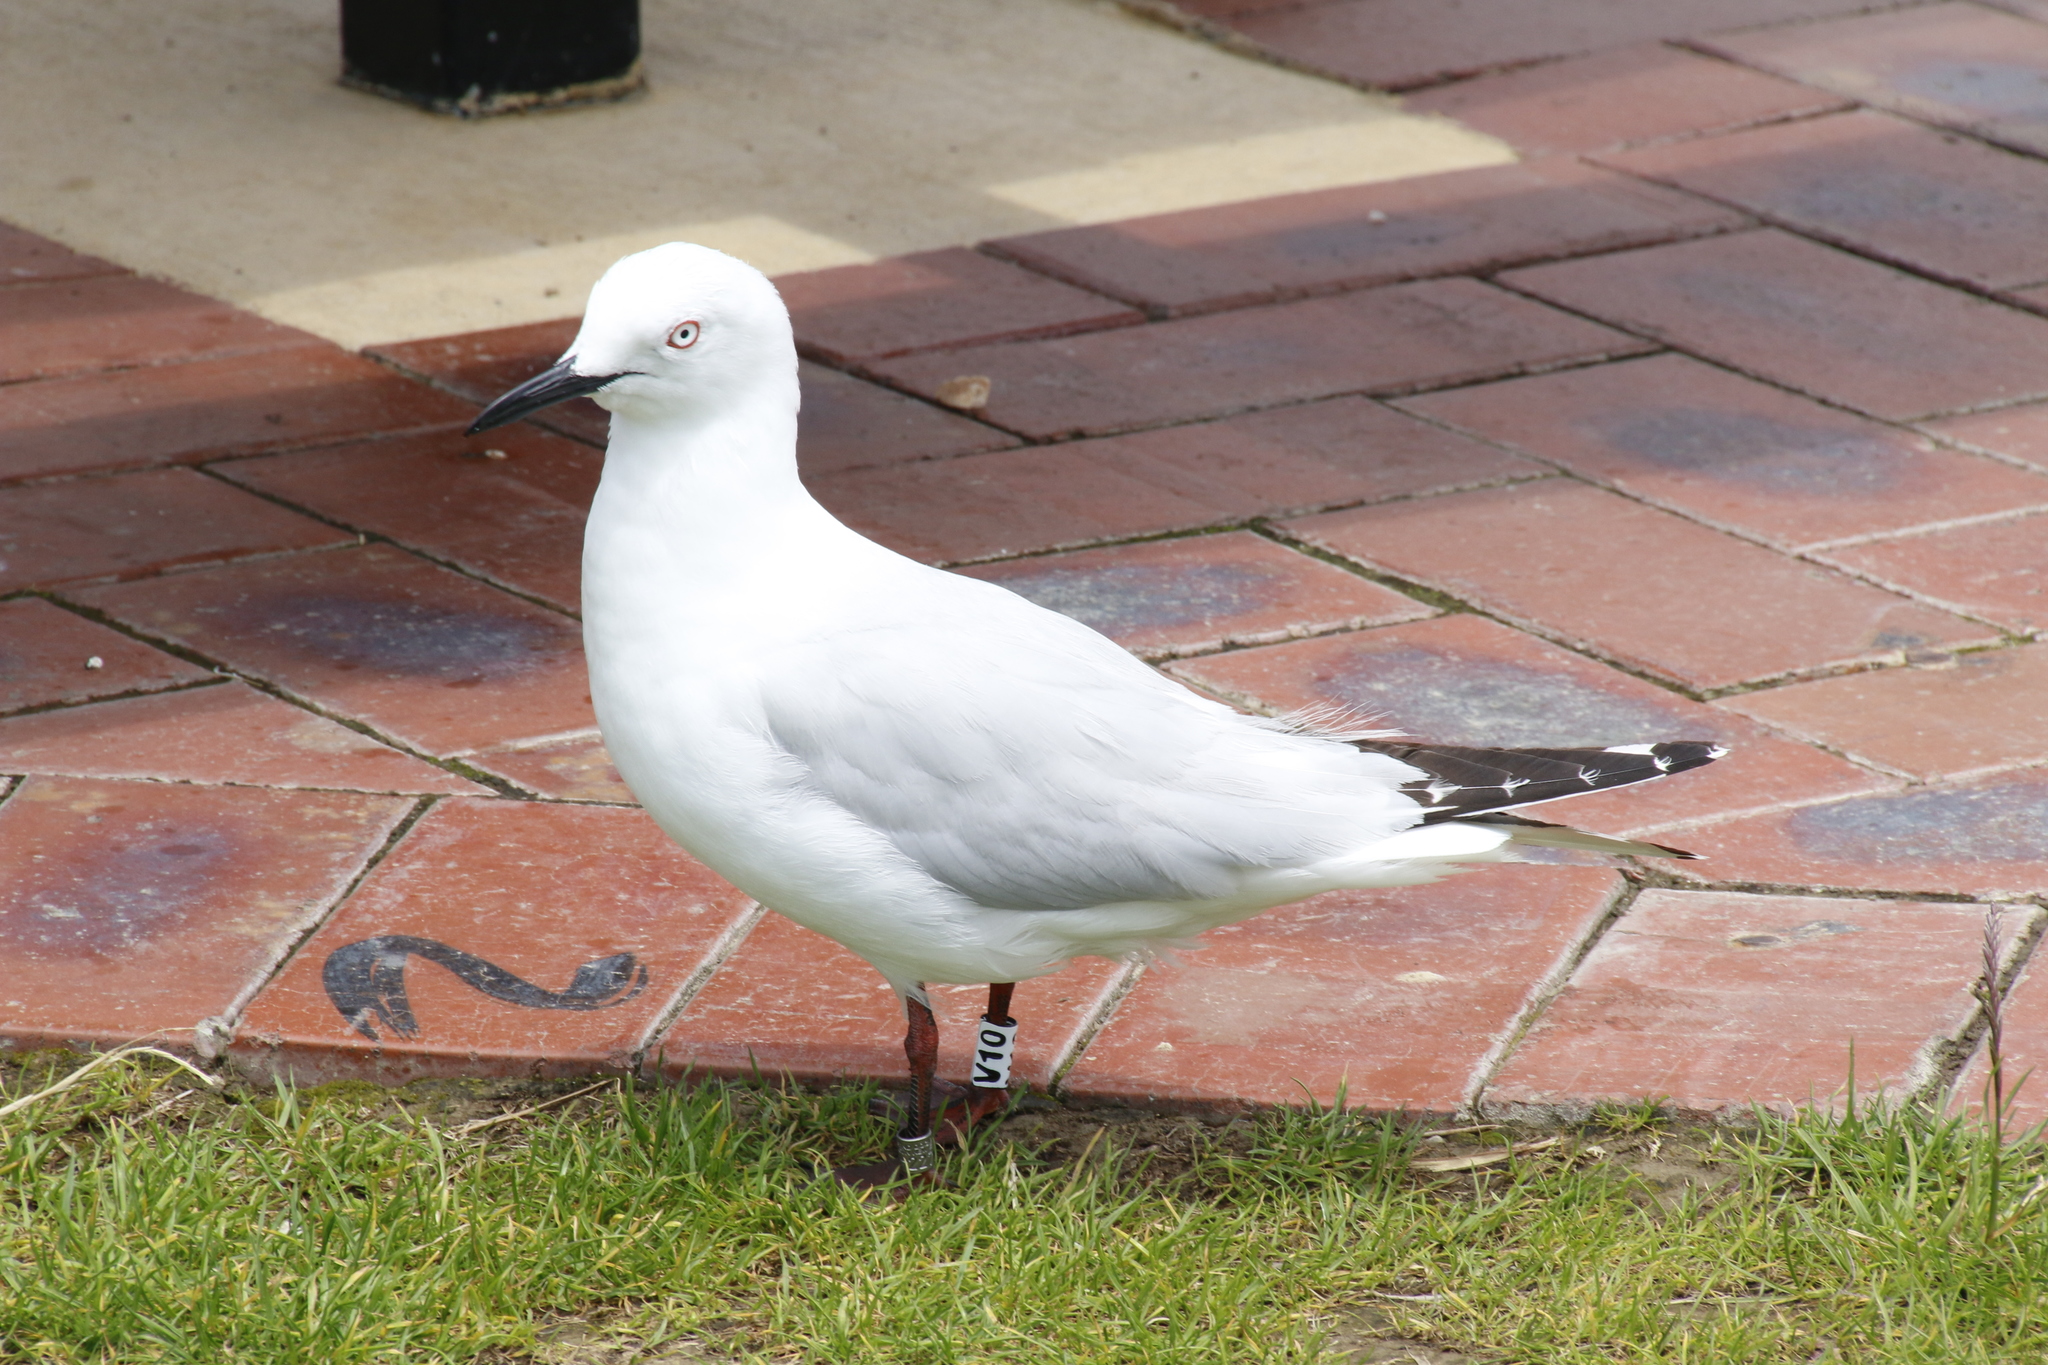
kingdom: Animalia
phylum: Chordata
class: Aves
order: Charadriiformes
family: Laridae
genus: Chroicocephalus
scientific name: Chroicocephalus bulleri
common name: Black-billed gull
